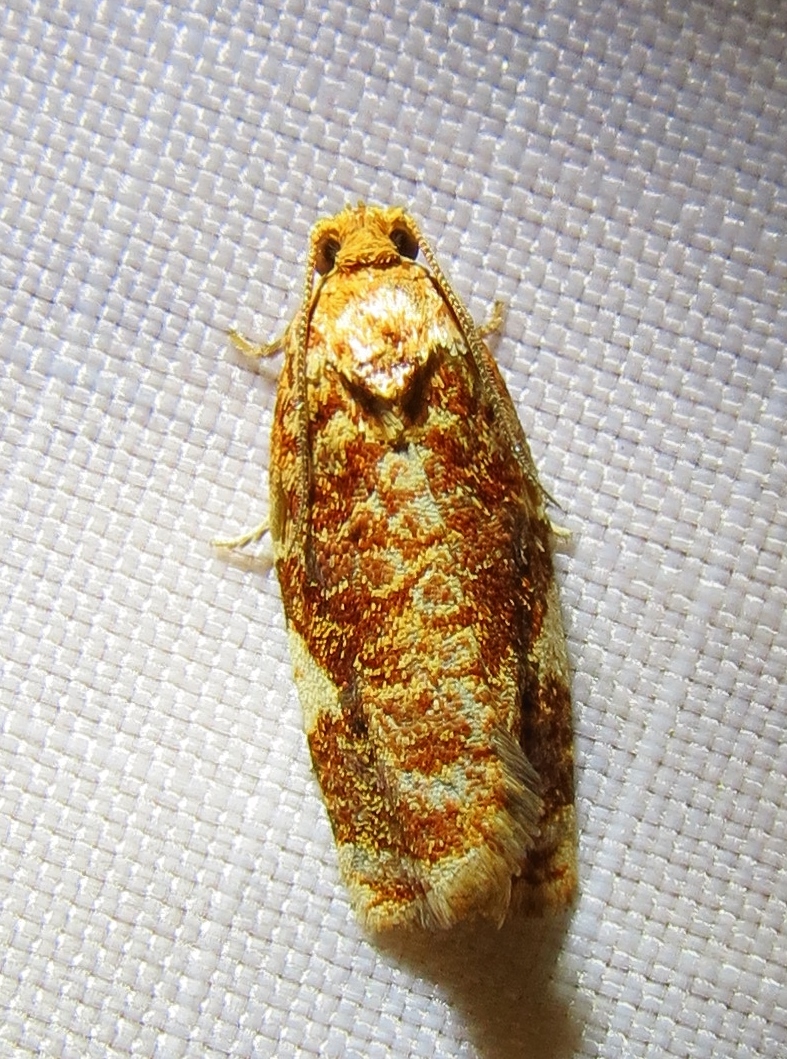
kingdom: Animalia
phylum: Arthropoda
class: Insecta
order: Lepidoptera
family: Tortricidae
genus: Archips
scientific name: Archips argyrospila
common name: Fruit-tree leafroller moth
